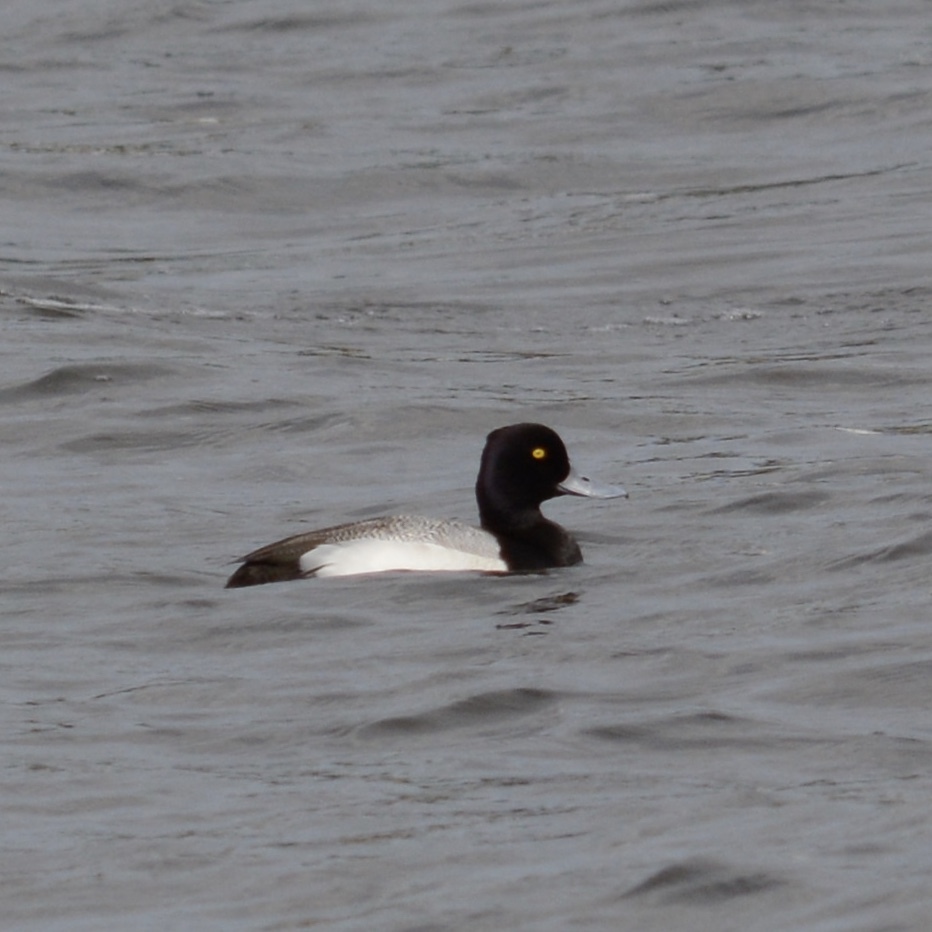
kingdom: Animalia
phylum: Chordata
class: Aves
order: Anseriformes
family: Anatidae
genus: Aythya
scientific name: Aythya affinis
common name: Lesser scaup
